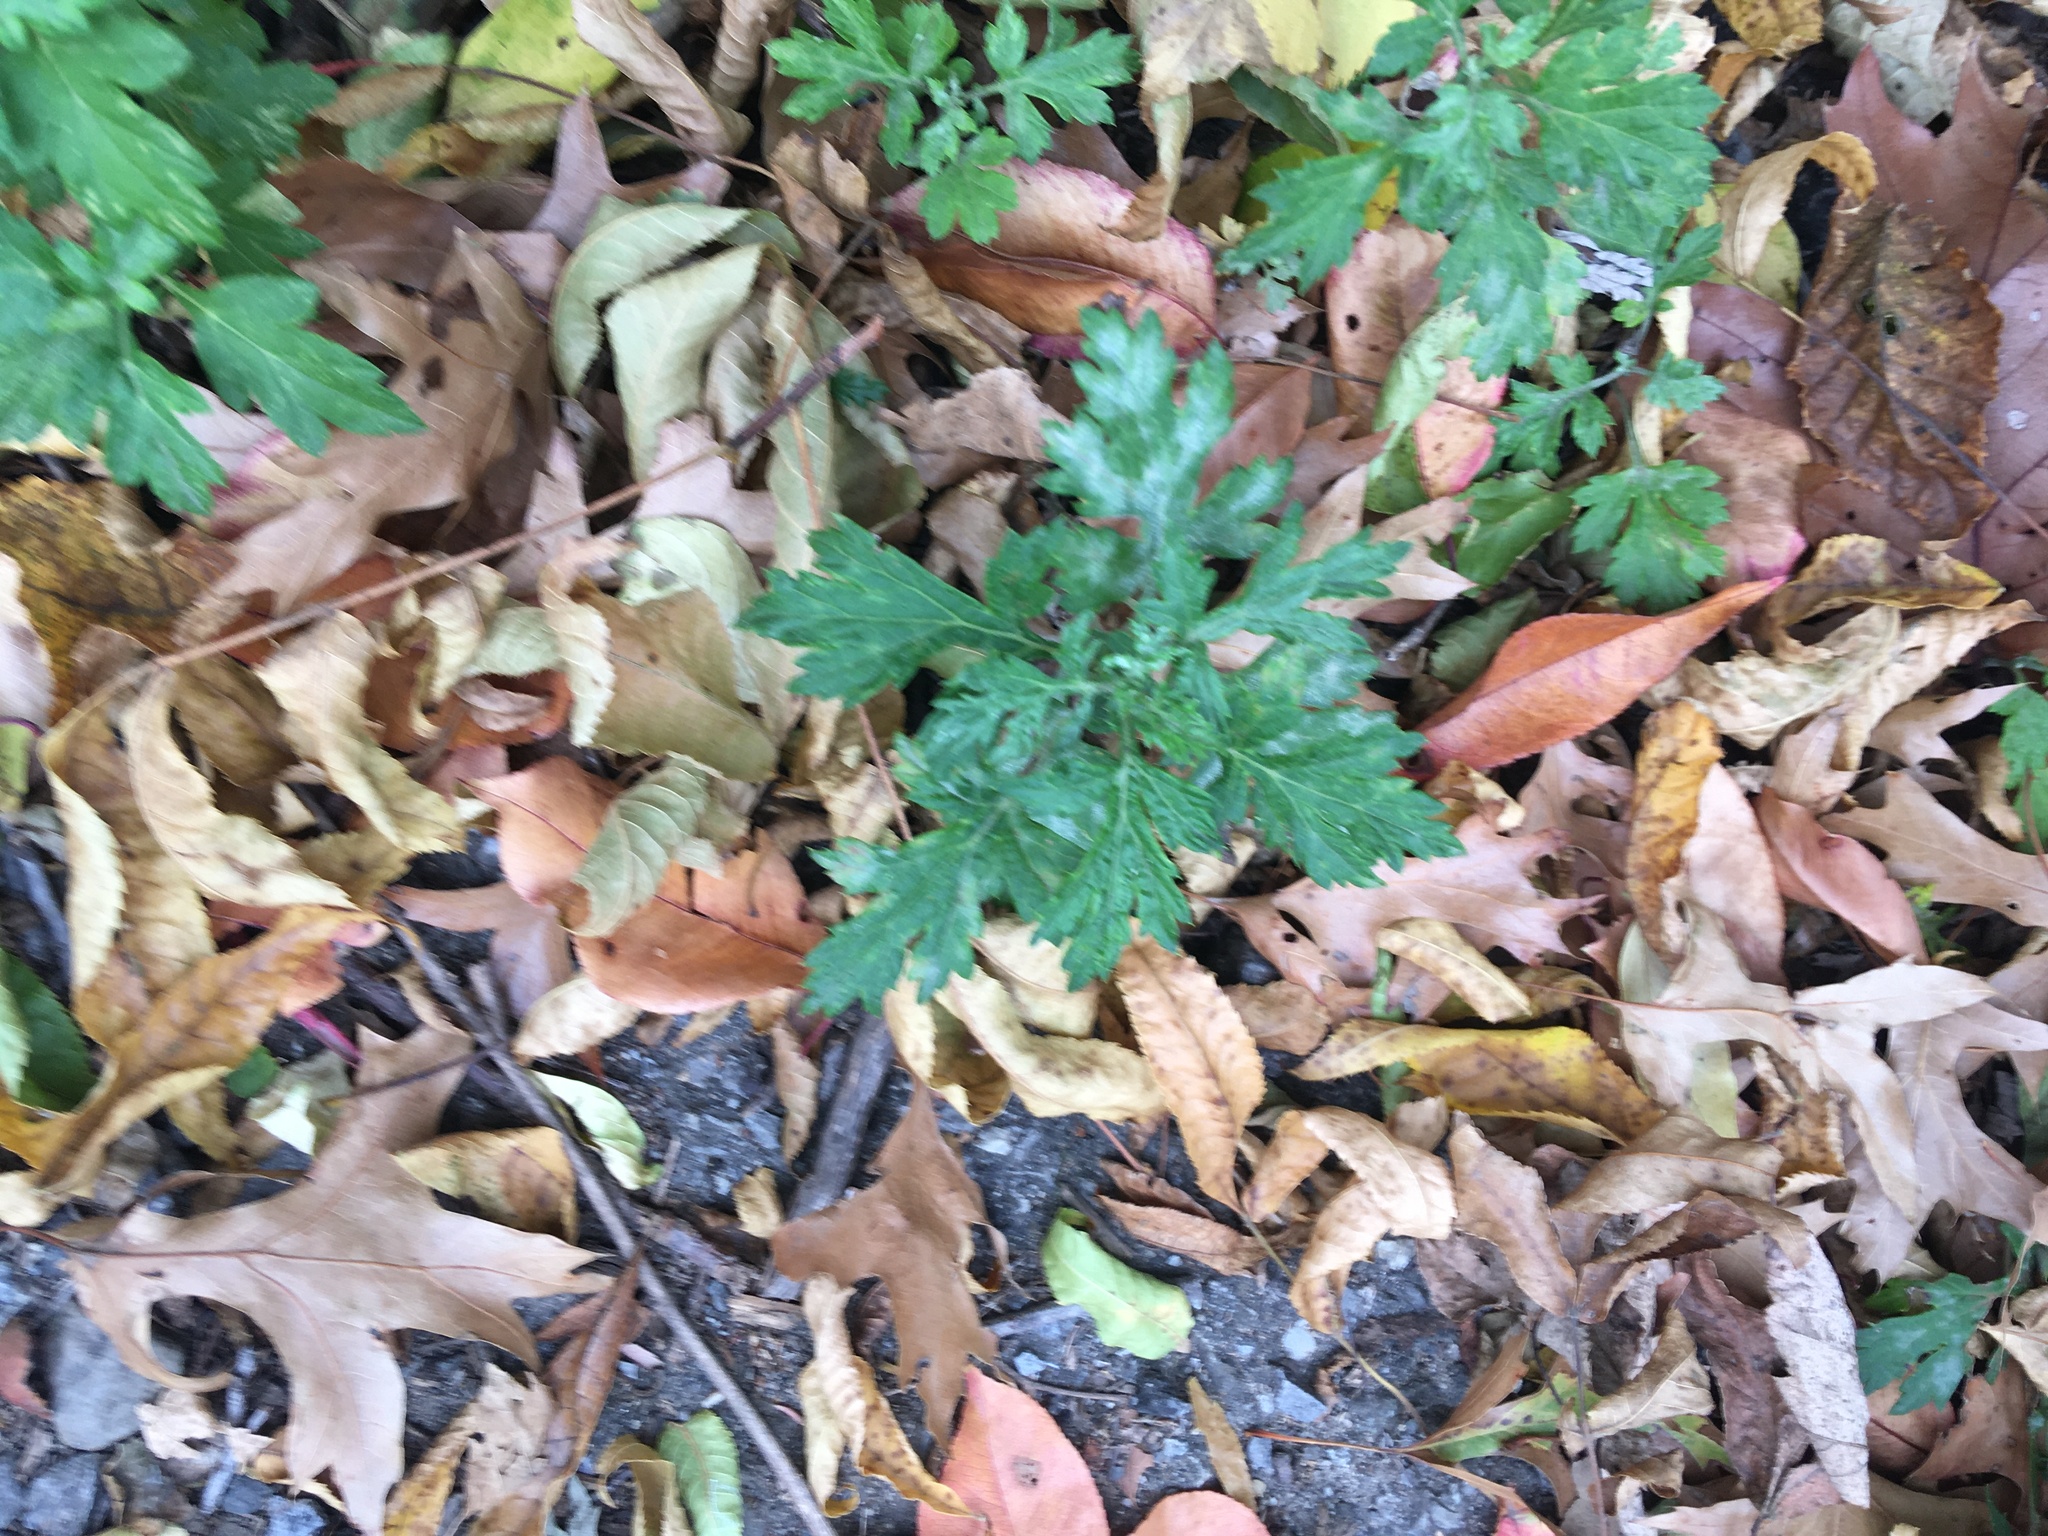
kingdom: Plantae
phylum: Tracheophyta
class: Magnoliopsida
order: Asterales
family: Asteraceae
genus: Artemisia
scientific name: Artemisia vulgaris
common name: Mugwort
